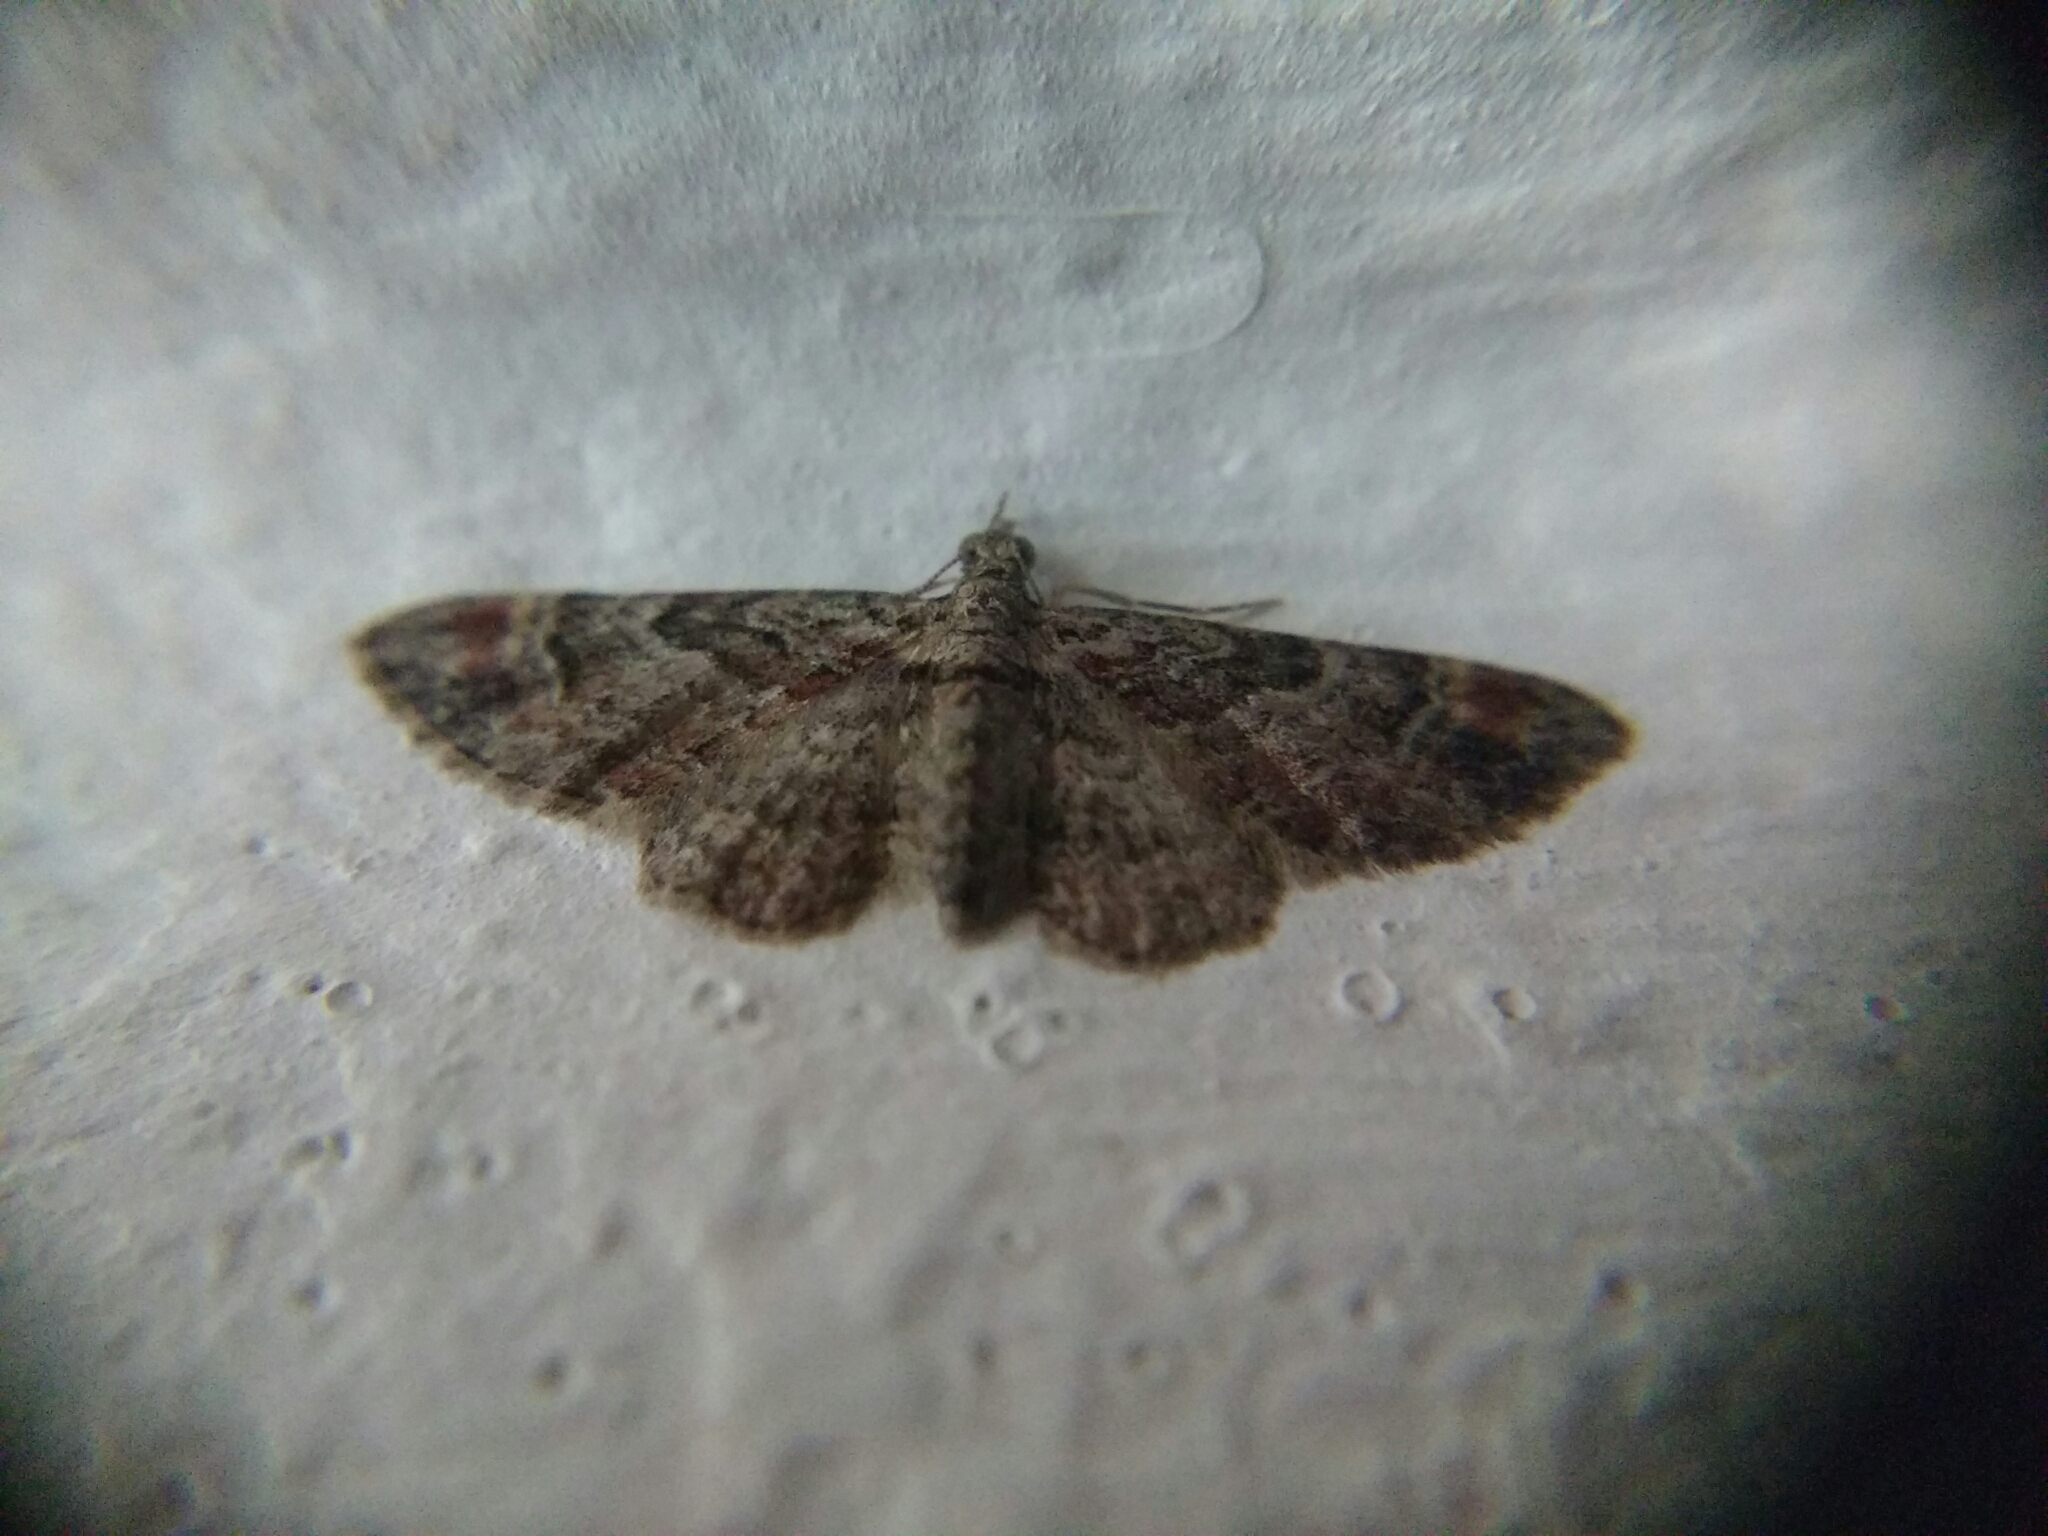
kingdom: Animalia
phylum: Arthropoda
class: Insecta
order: Lepidoptera
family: Geometridae
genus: Gymnoscelis
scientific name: Gymnoscelis rufifasciata
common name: Double-striped pug
